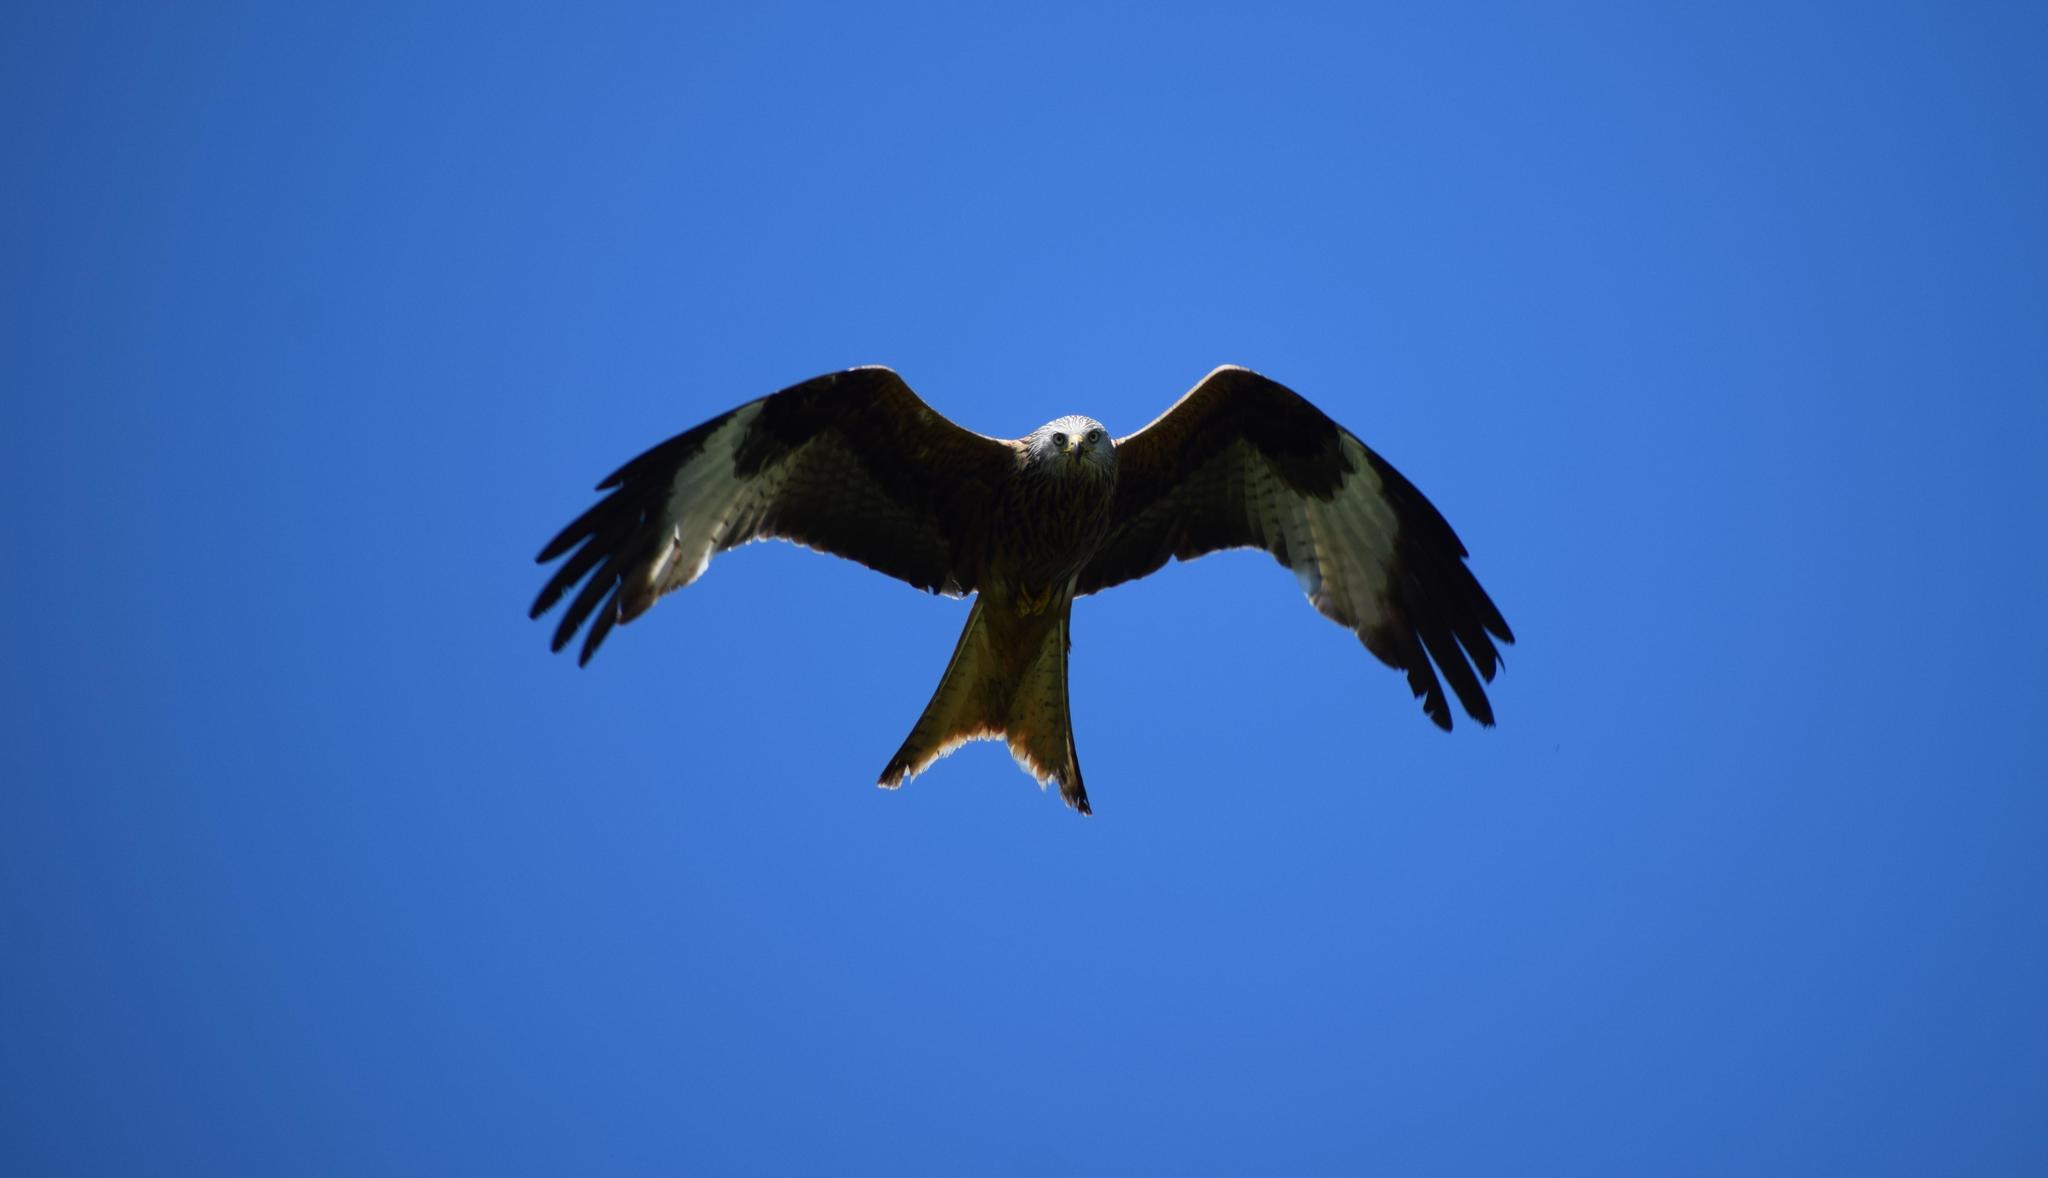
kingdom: Animalia
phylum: Chordata
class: Aves
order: Accipitriformes
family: Accipitridae
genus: Milvus
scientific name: Milvus milvus
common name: Red kite
